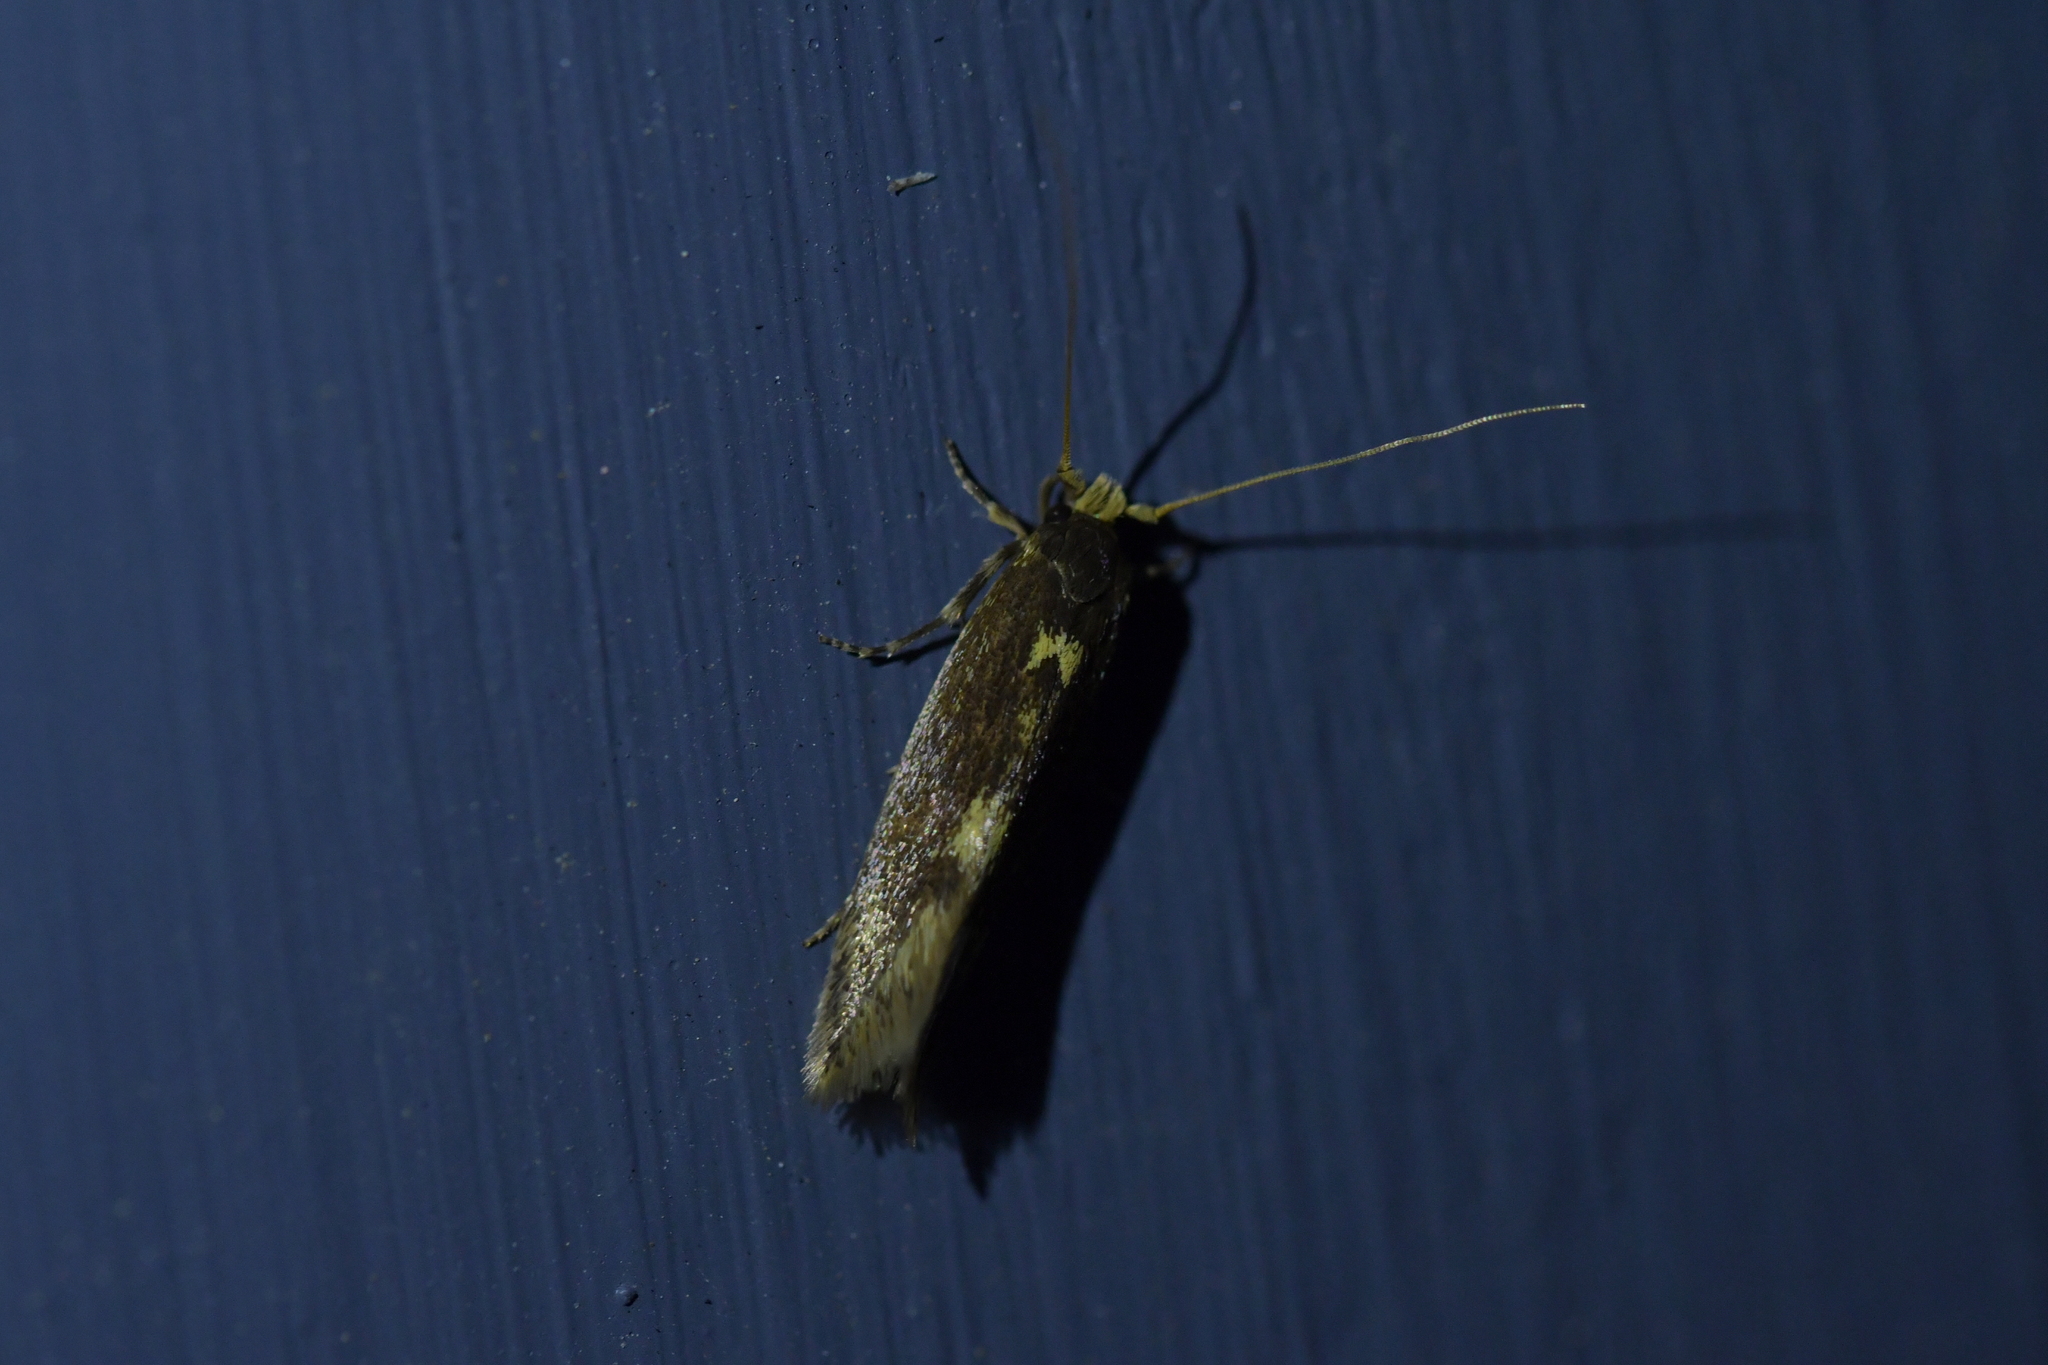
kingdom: Animalia
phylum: Arthropoda
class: Insecta
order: Lepidoptera
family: Tineidae
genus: Opogona
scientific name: Opogona omoscopa
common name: Moth
